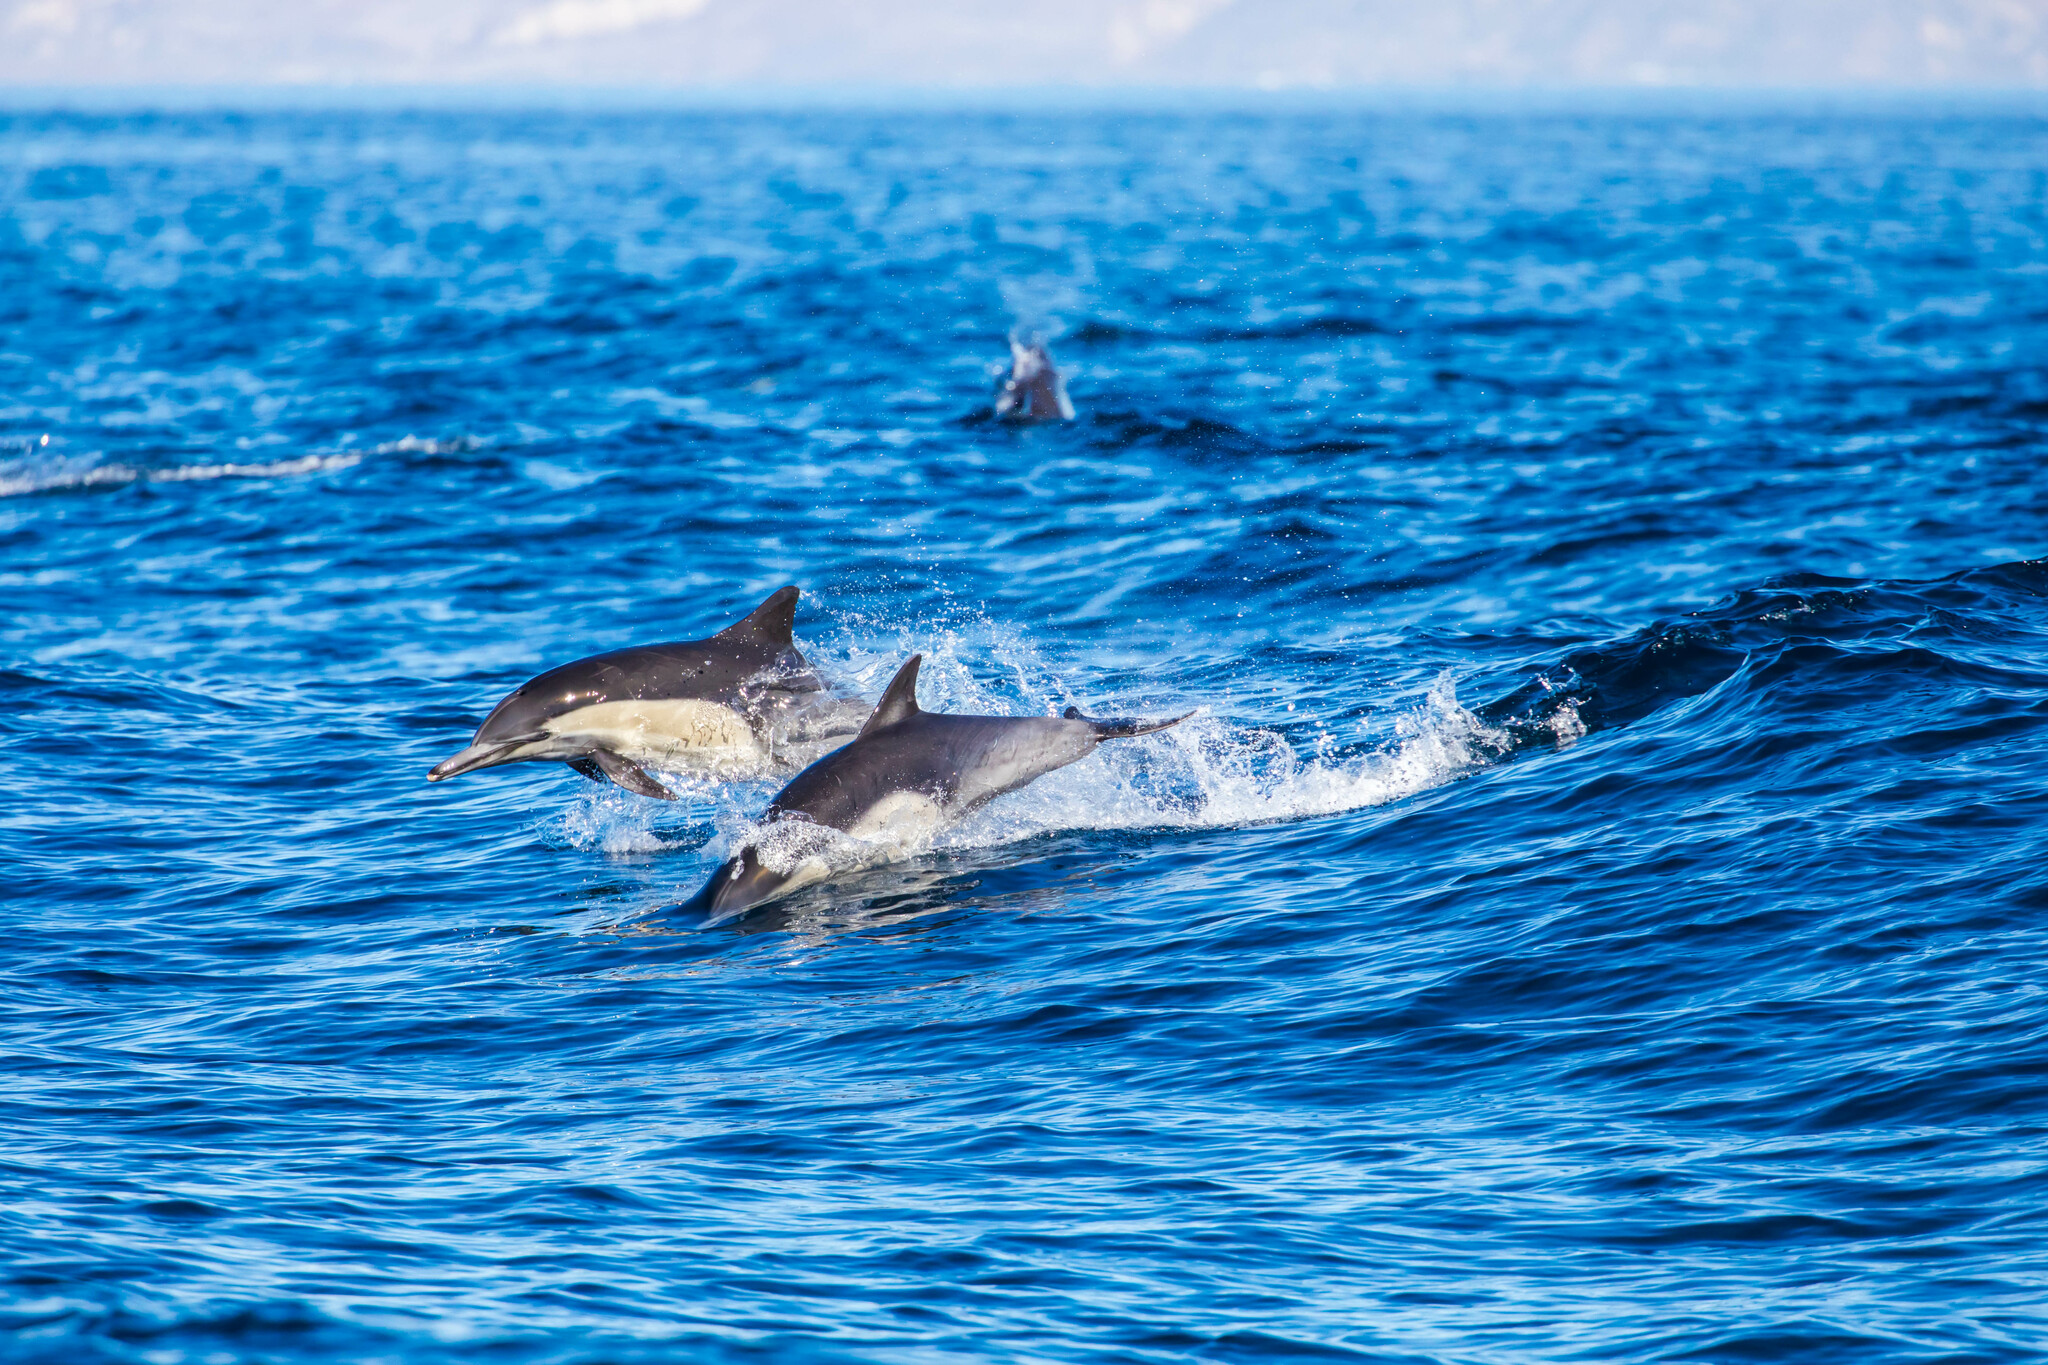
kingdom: Animalia
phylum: Chordata
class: Mammalia
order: Cetacea
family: Delphinidae
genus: Delphinus
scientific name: Delphinus delphis
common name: Common dolphin
